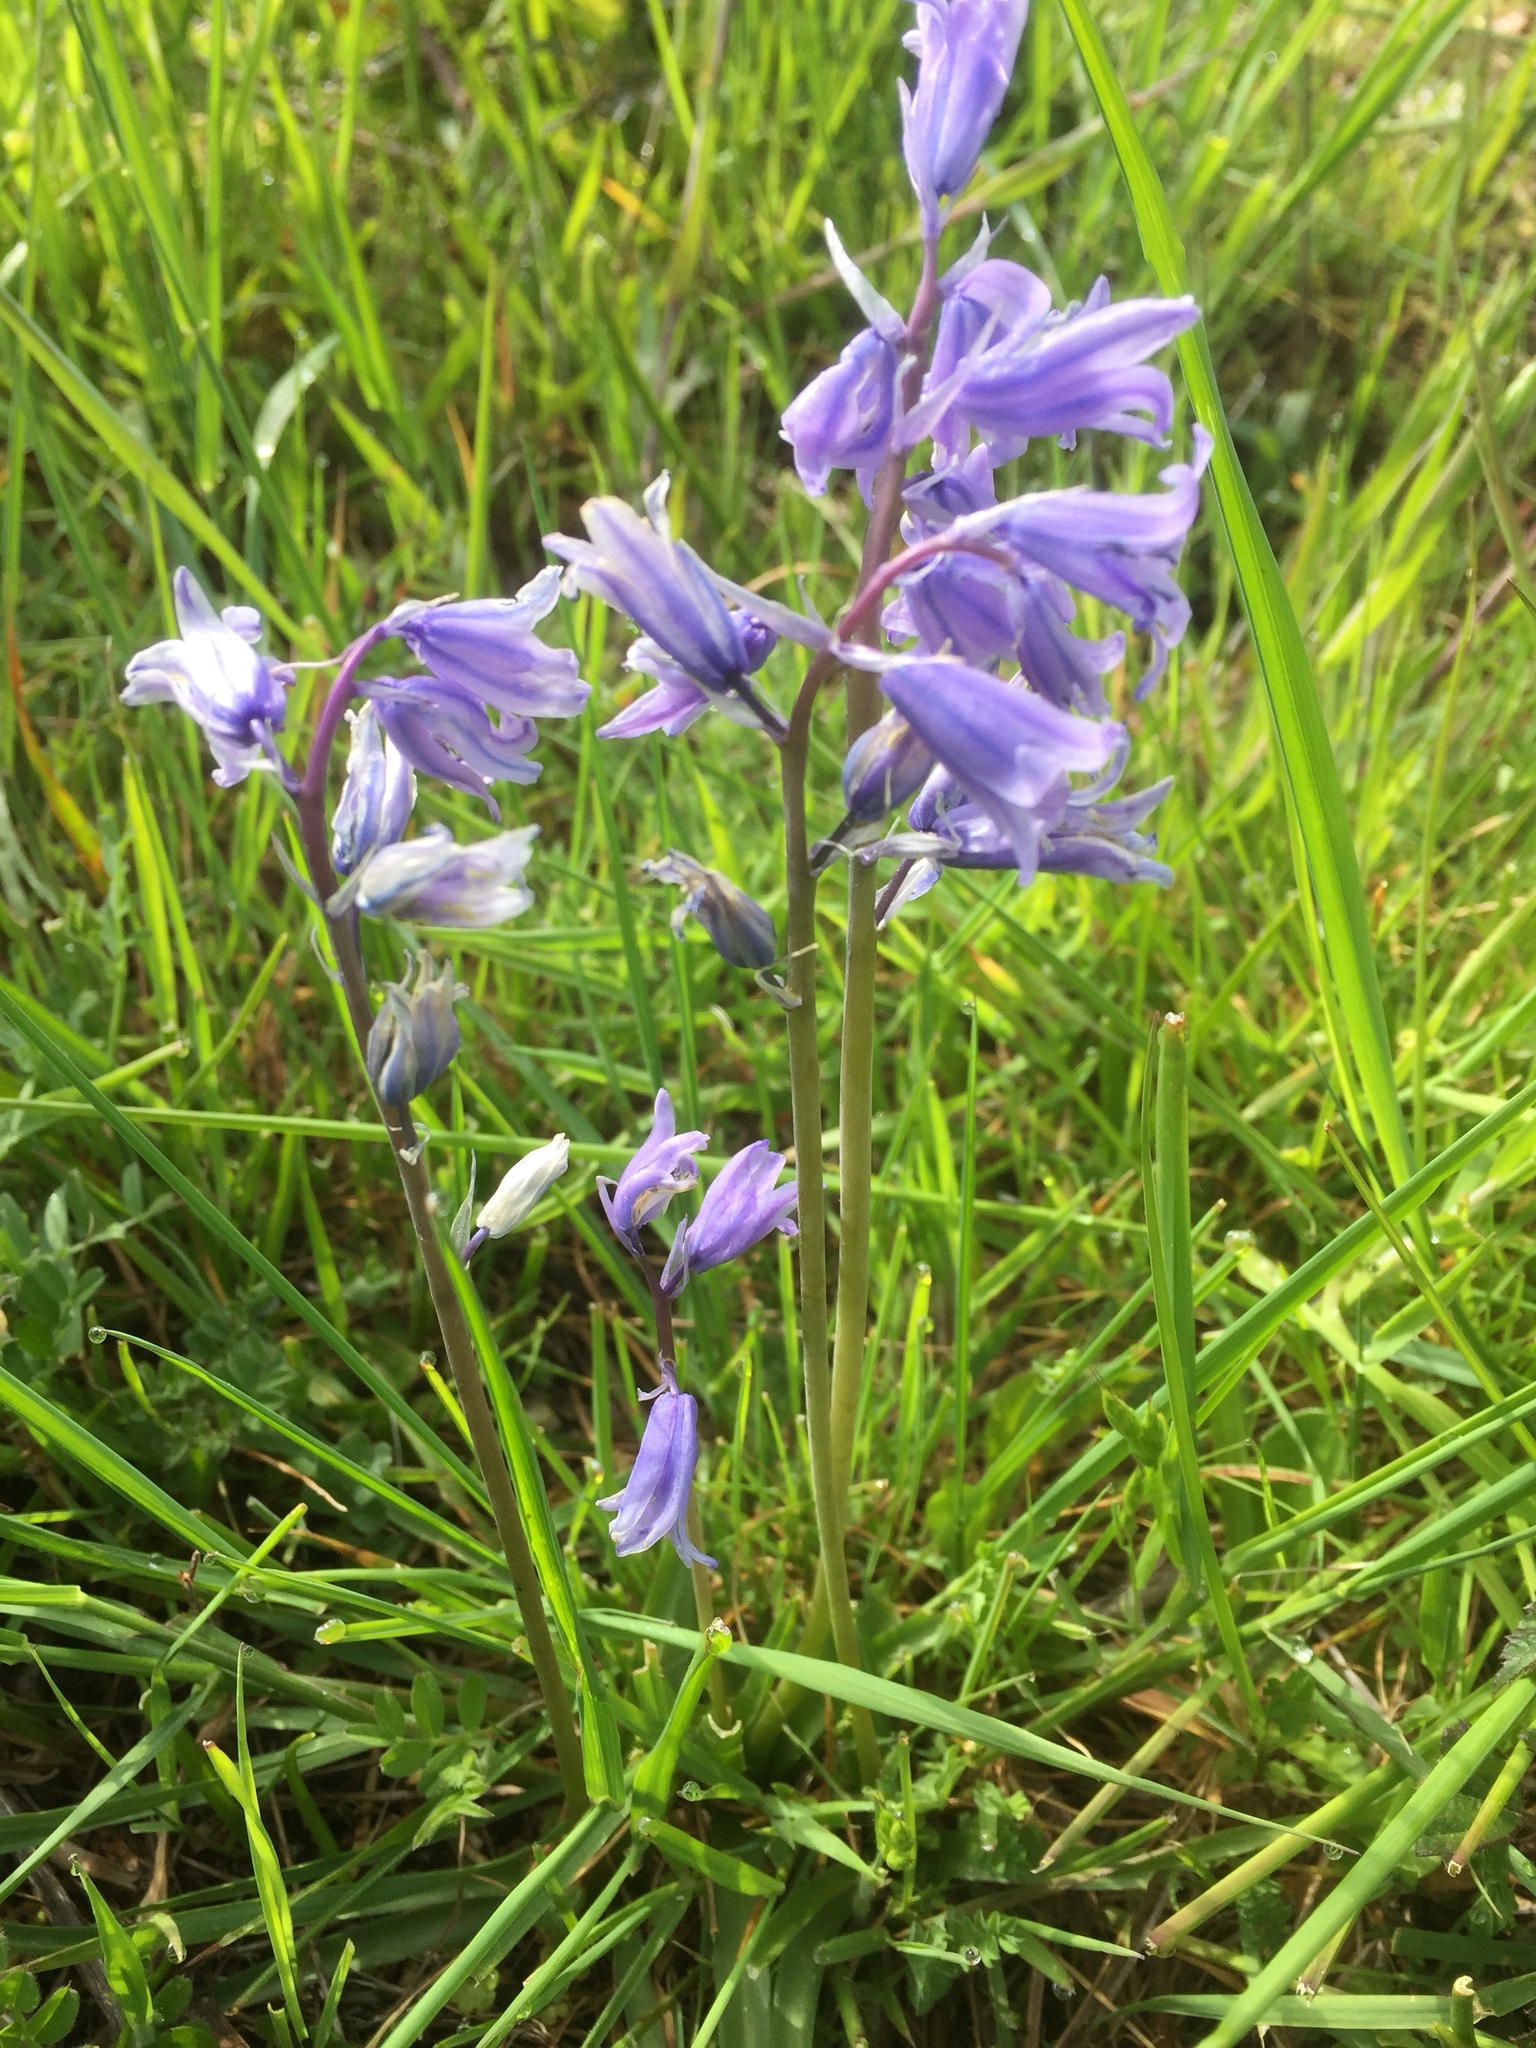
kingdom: Plantae
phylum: Tracheophyta
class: Liliopsida
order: Asparagales
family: Asparagaceae
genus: Hyacinthoides
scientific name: Hyacinthoides hispanica
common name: Spanish bluebell
